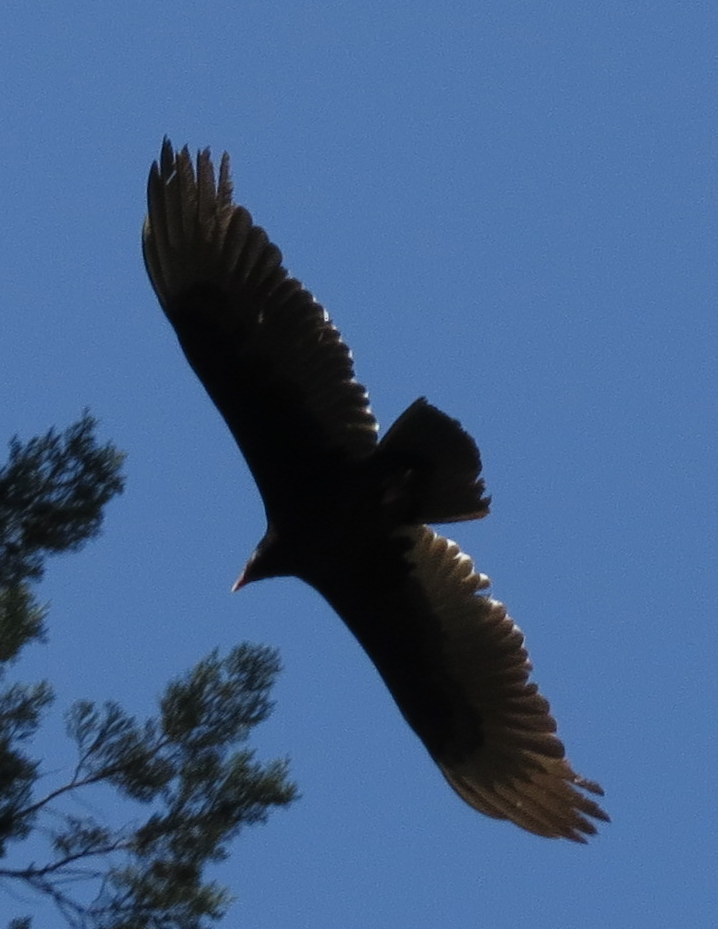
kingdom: Animalia
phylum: Chordata
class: Aves
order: Accipitriformes
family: Cathartidae
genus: Cathartes
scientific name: Cathartes aura
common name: Turkey vulture
